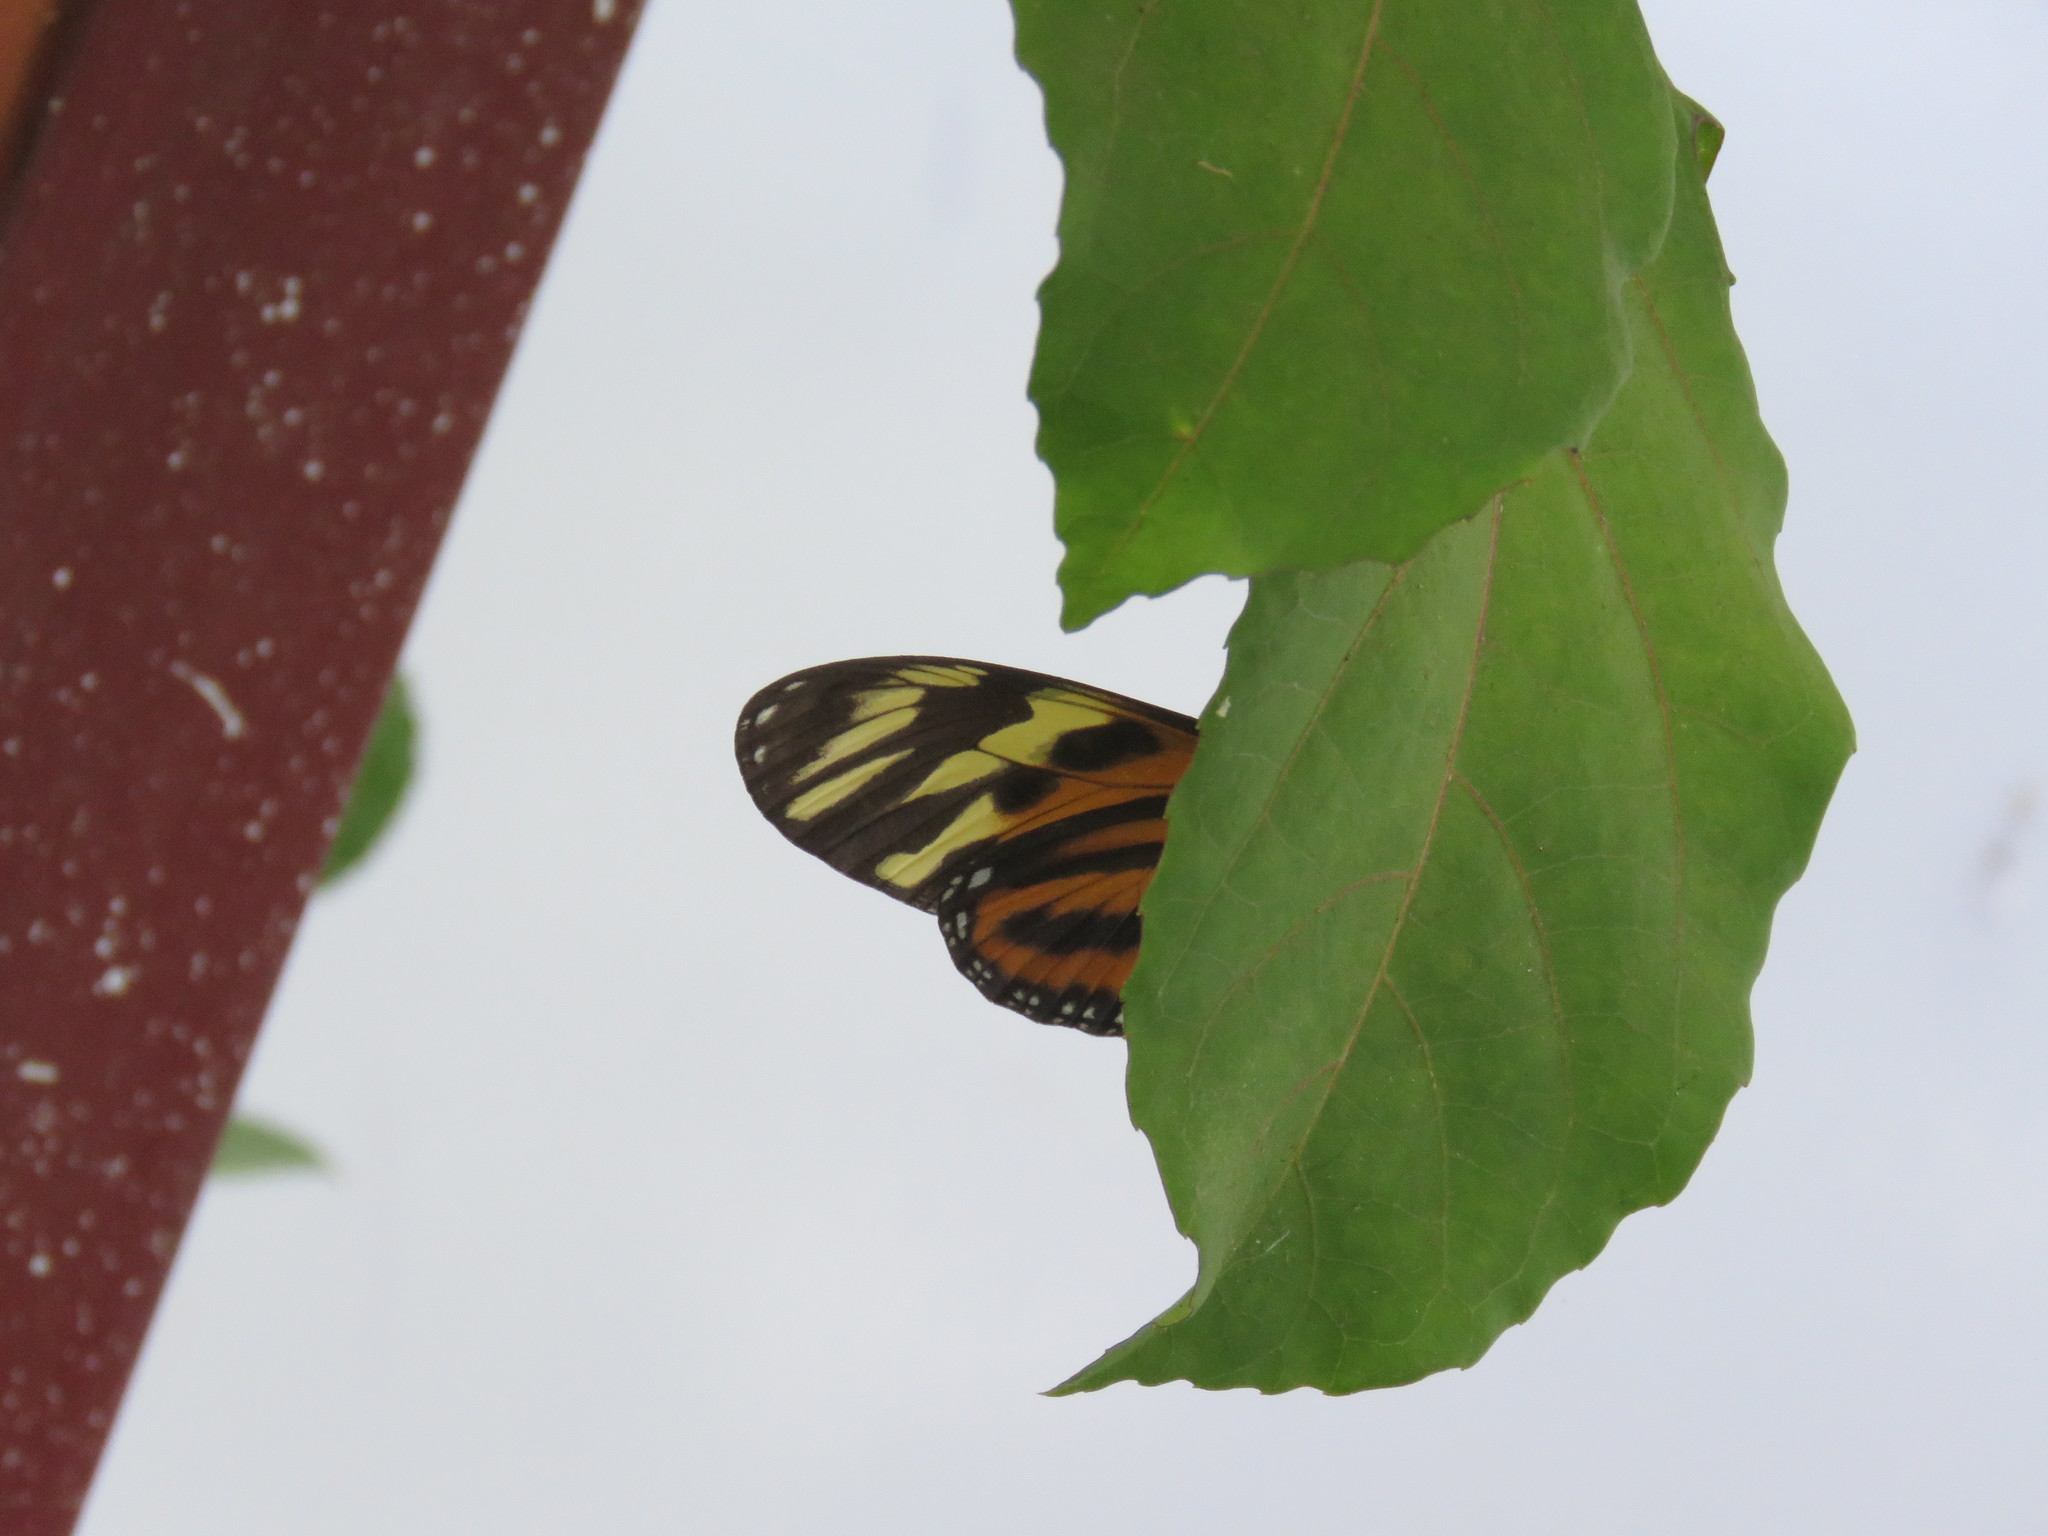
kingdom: Animalia
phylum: Arthropoda
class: Insecta
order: Lepidoptera
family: Nymphalidae
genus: Lycorea
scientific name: Lycorea eva
